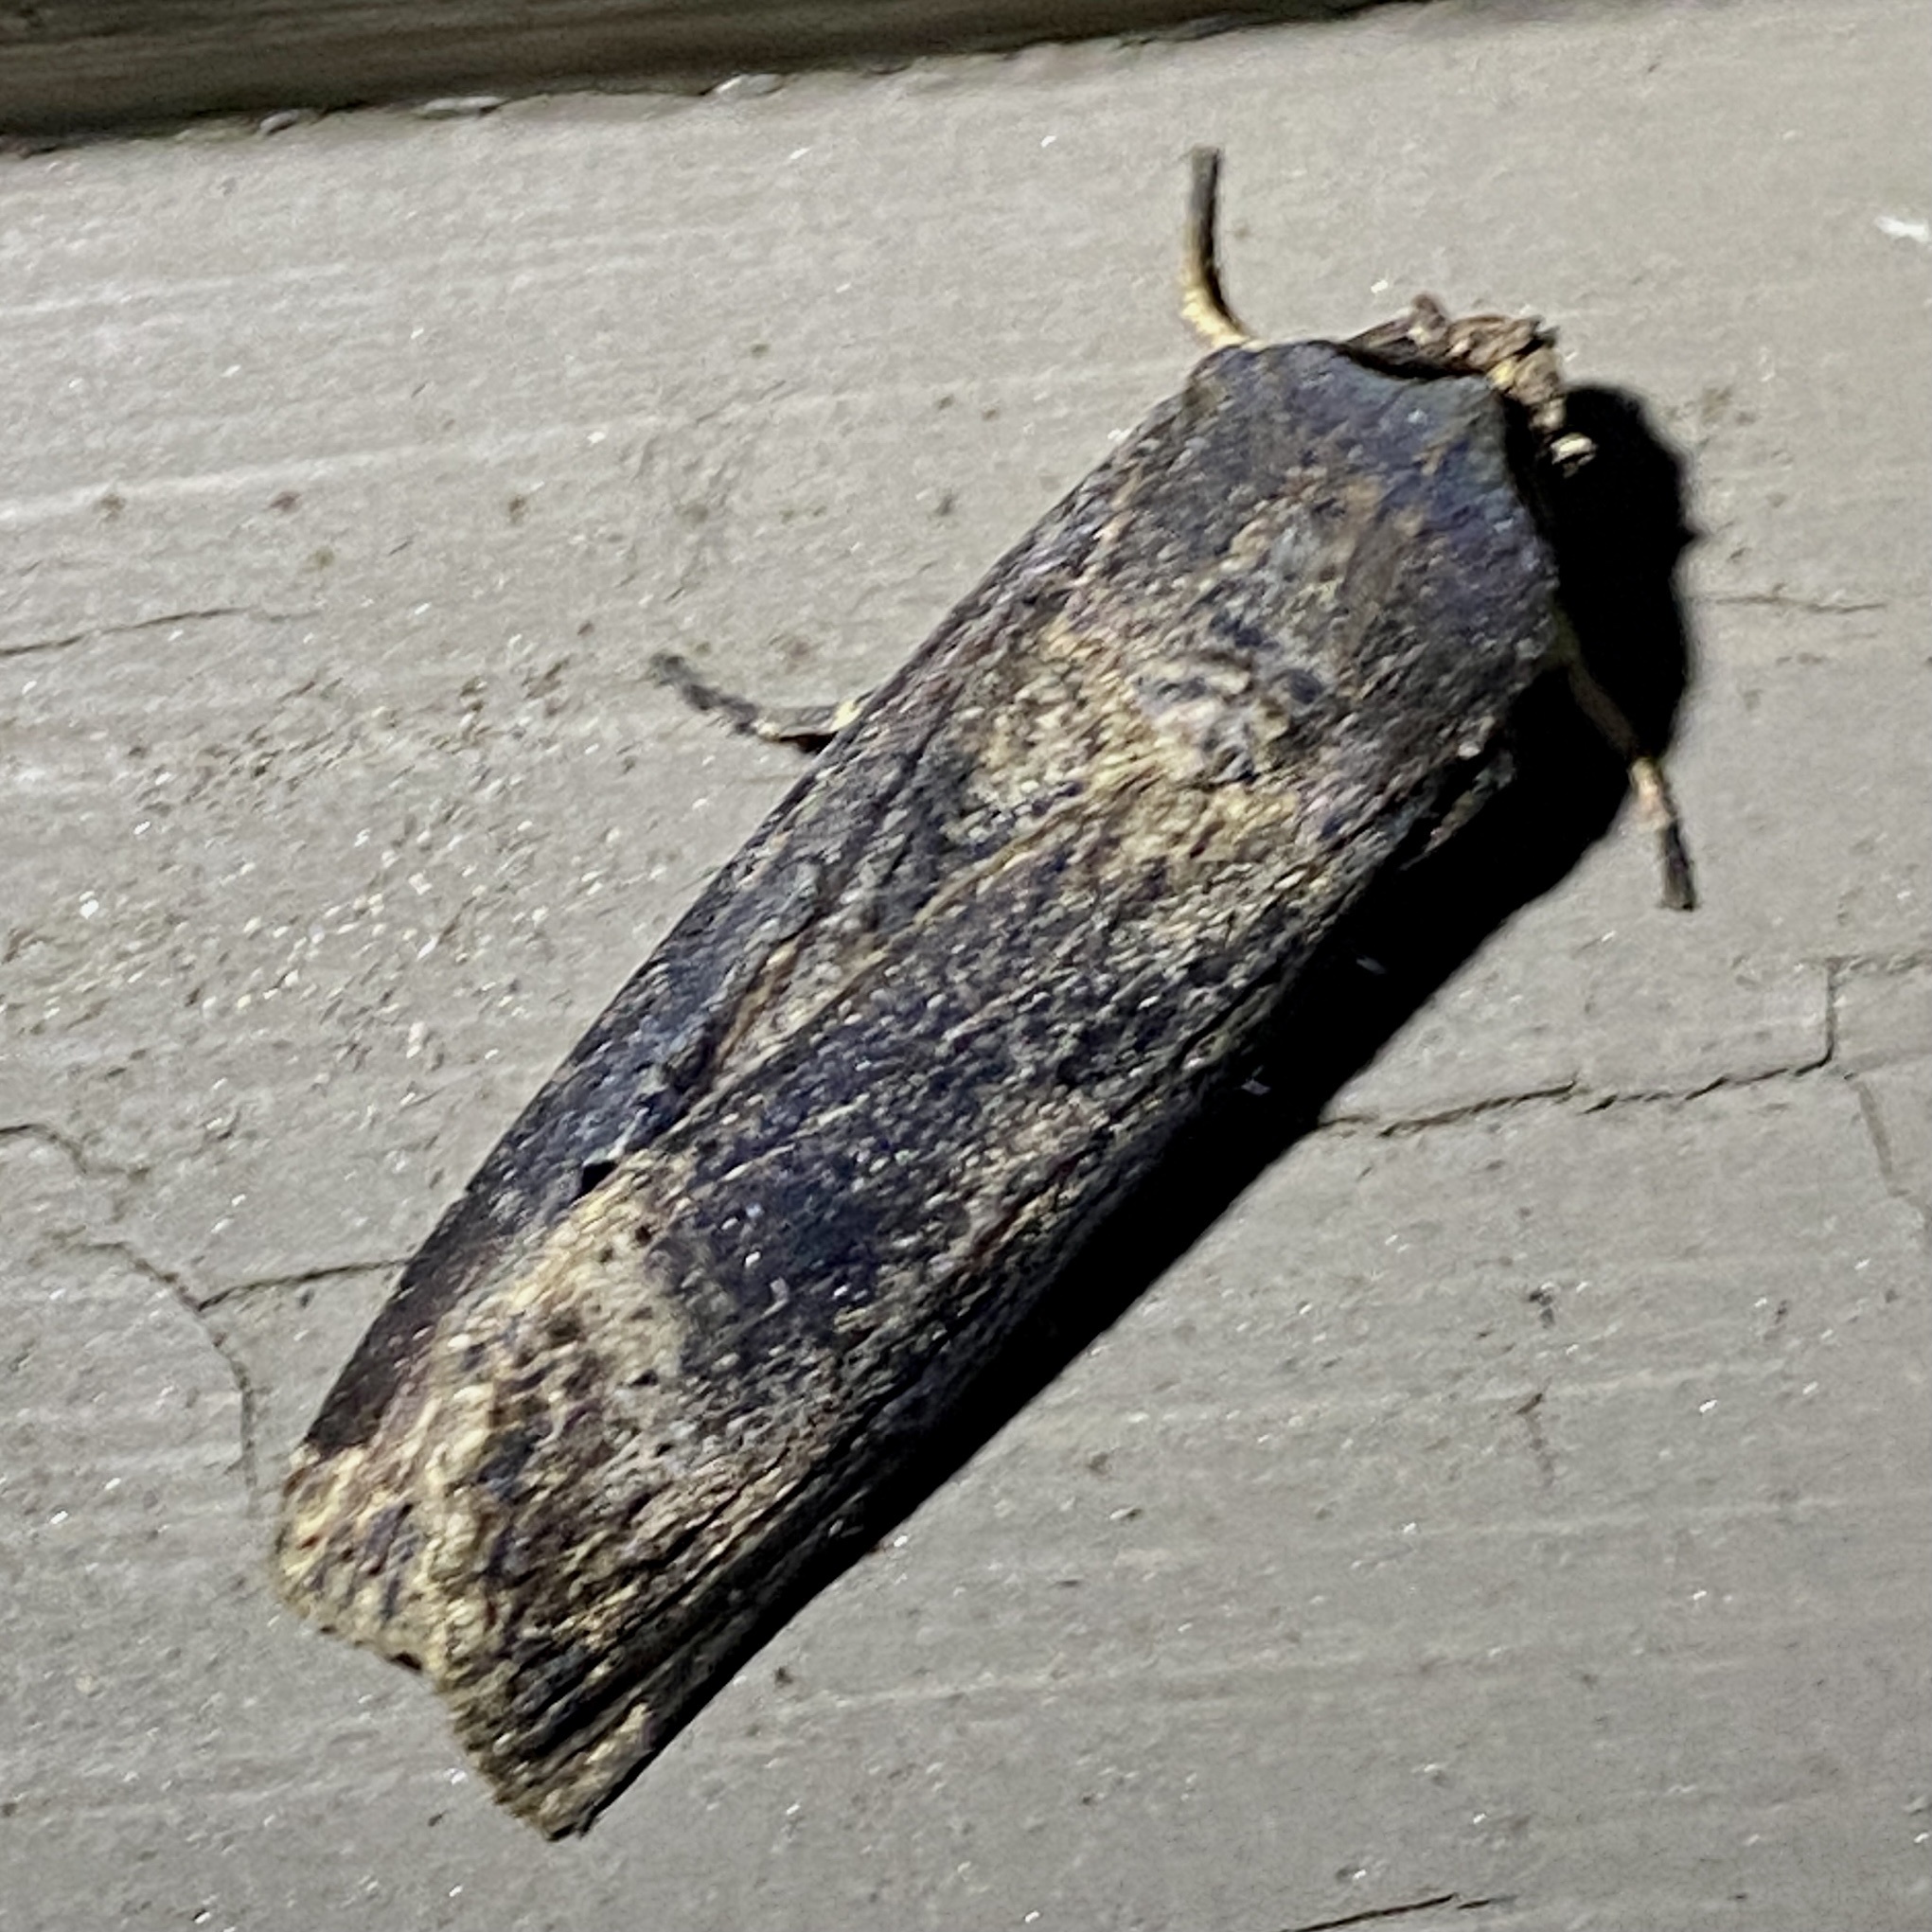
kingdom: Animalia
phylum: Arthropoda
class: Insecta
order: Lepidoptera
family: Noctuidae
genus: Agrotis
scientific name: Agrotis ipsilon
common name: Dark sword-grass
